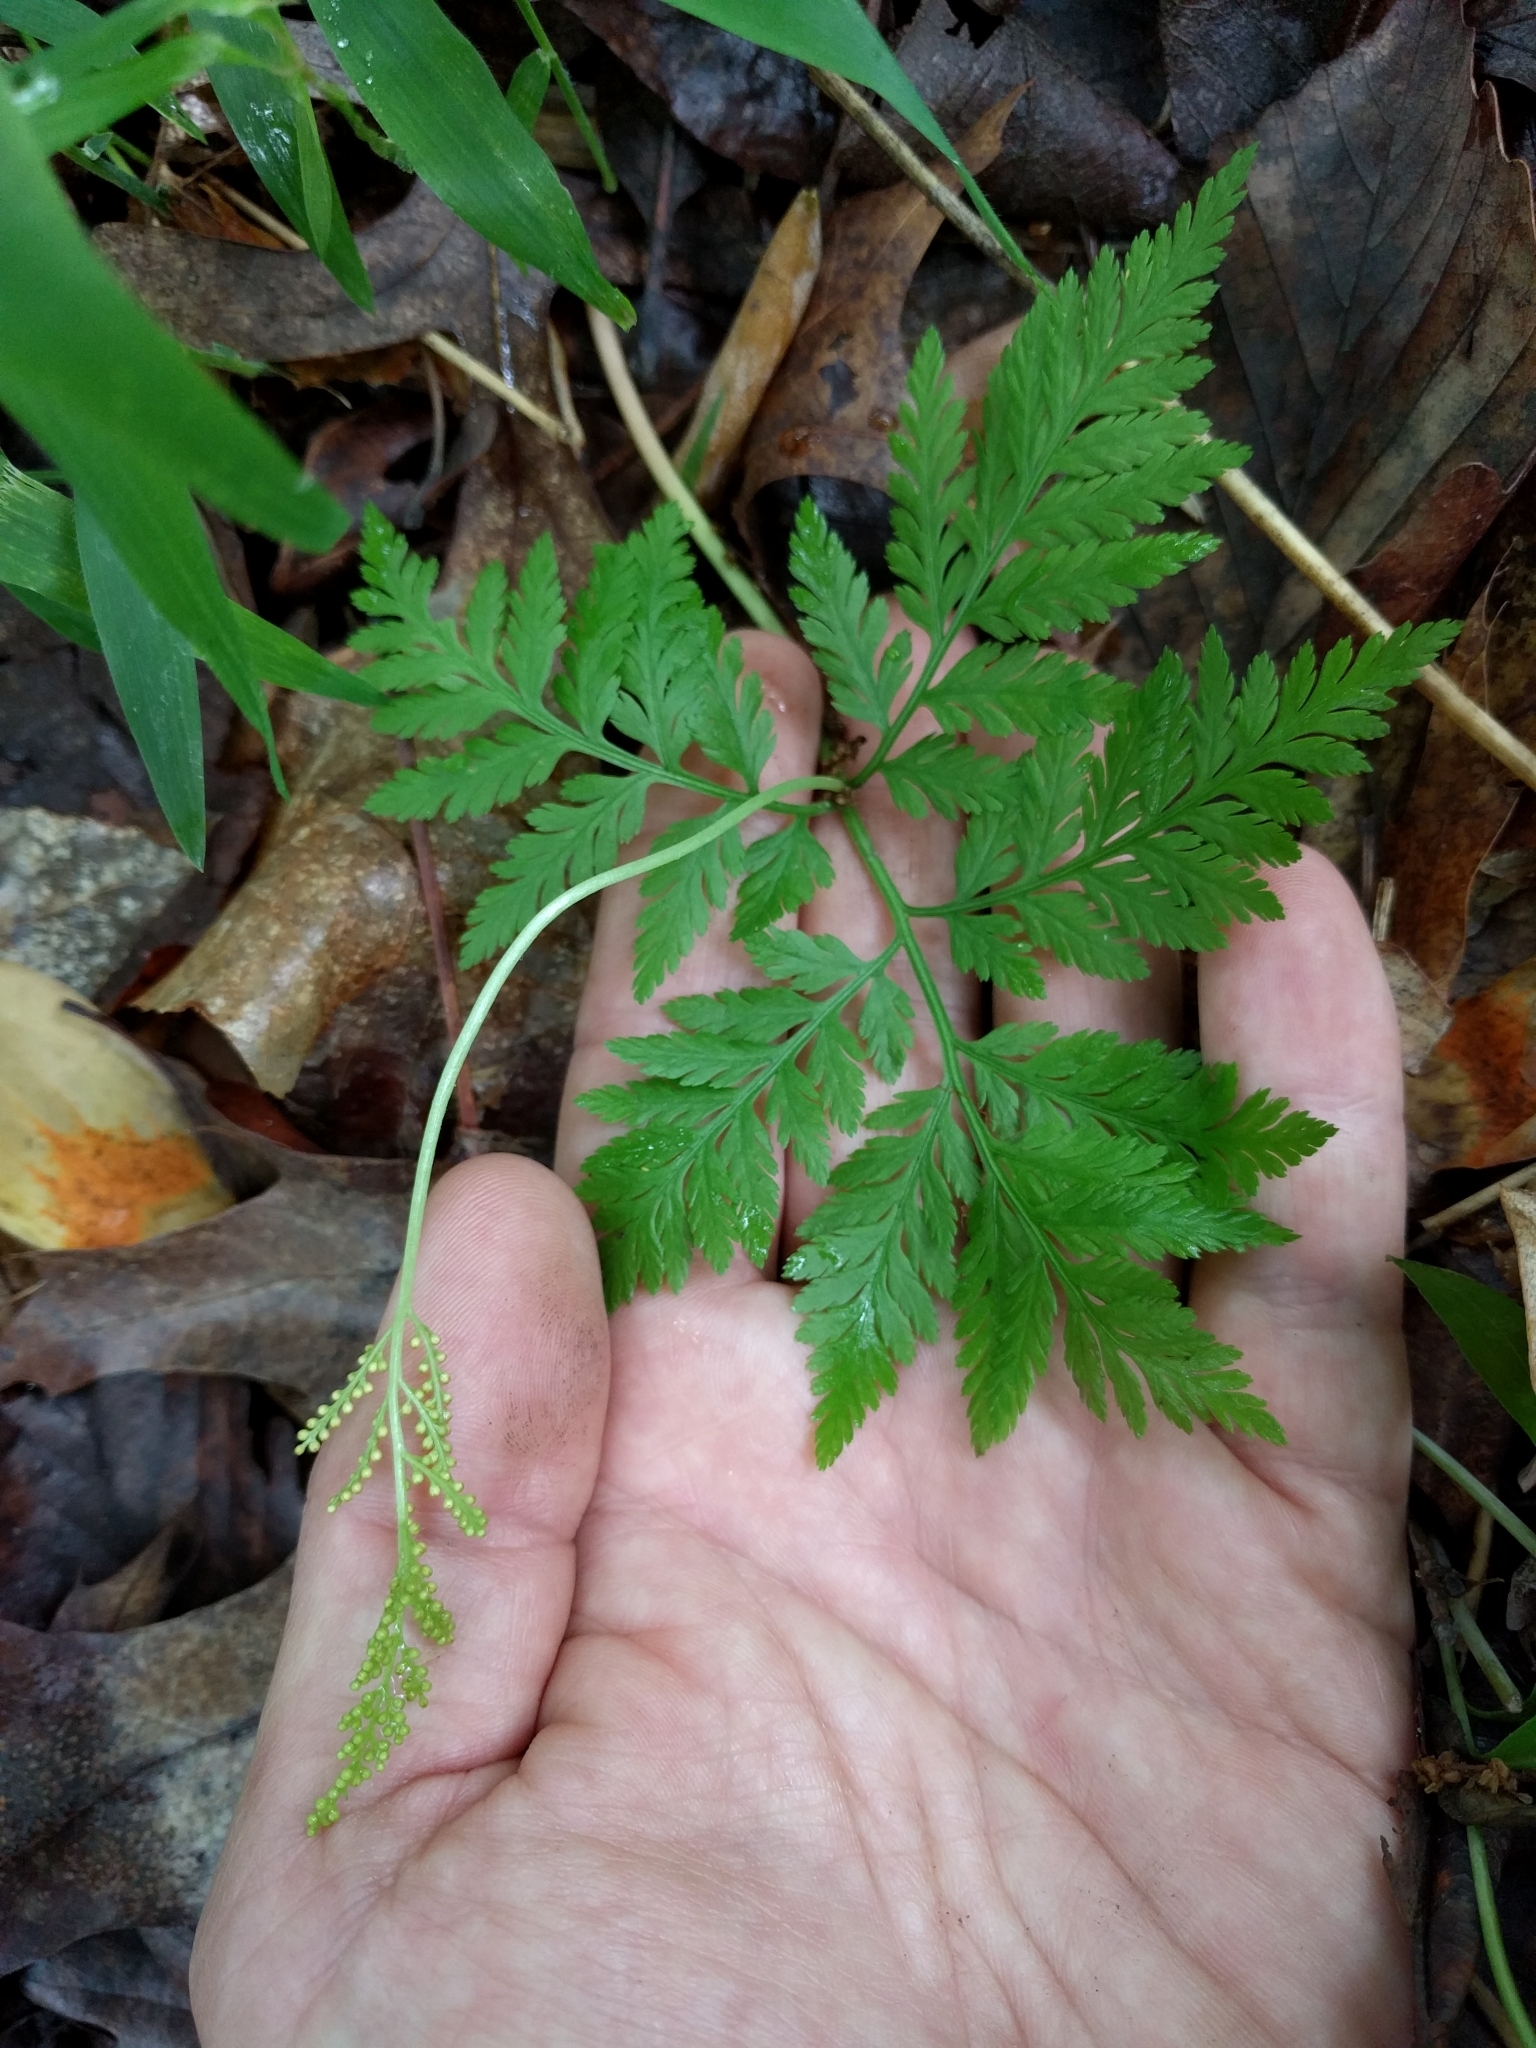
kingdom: Plantae
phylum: Tracheophyta
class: Polypodiopsida
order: Ophioglossales
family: Ophioglossaceae
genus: Botrypus
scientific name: Botrypus virginianus
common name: Common grapefern
